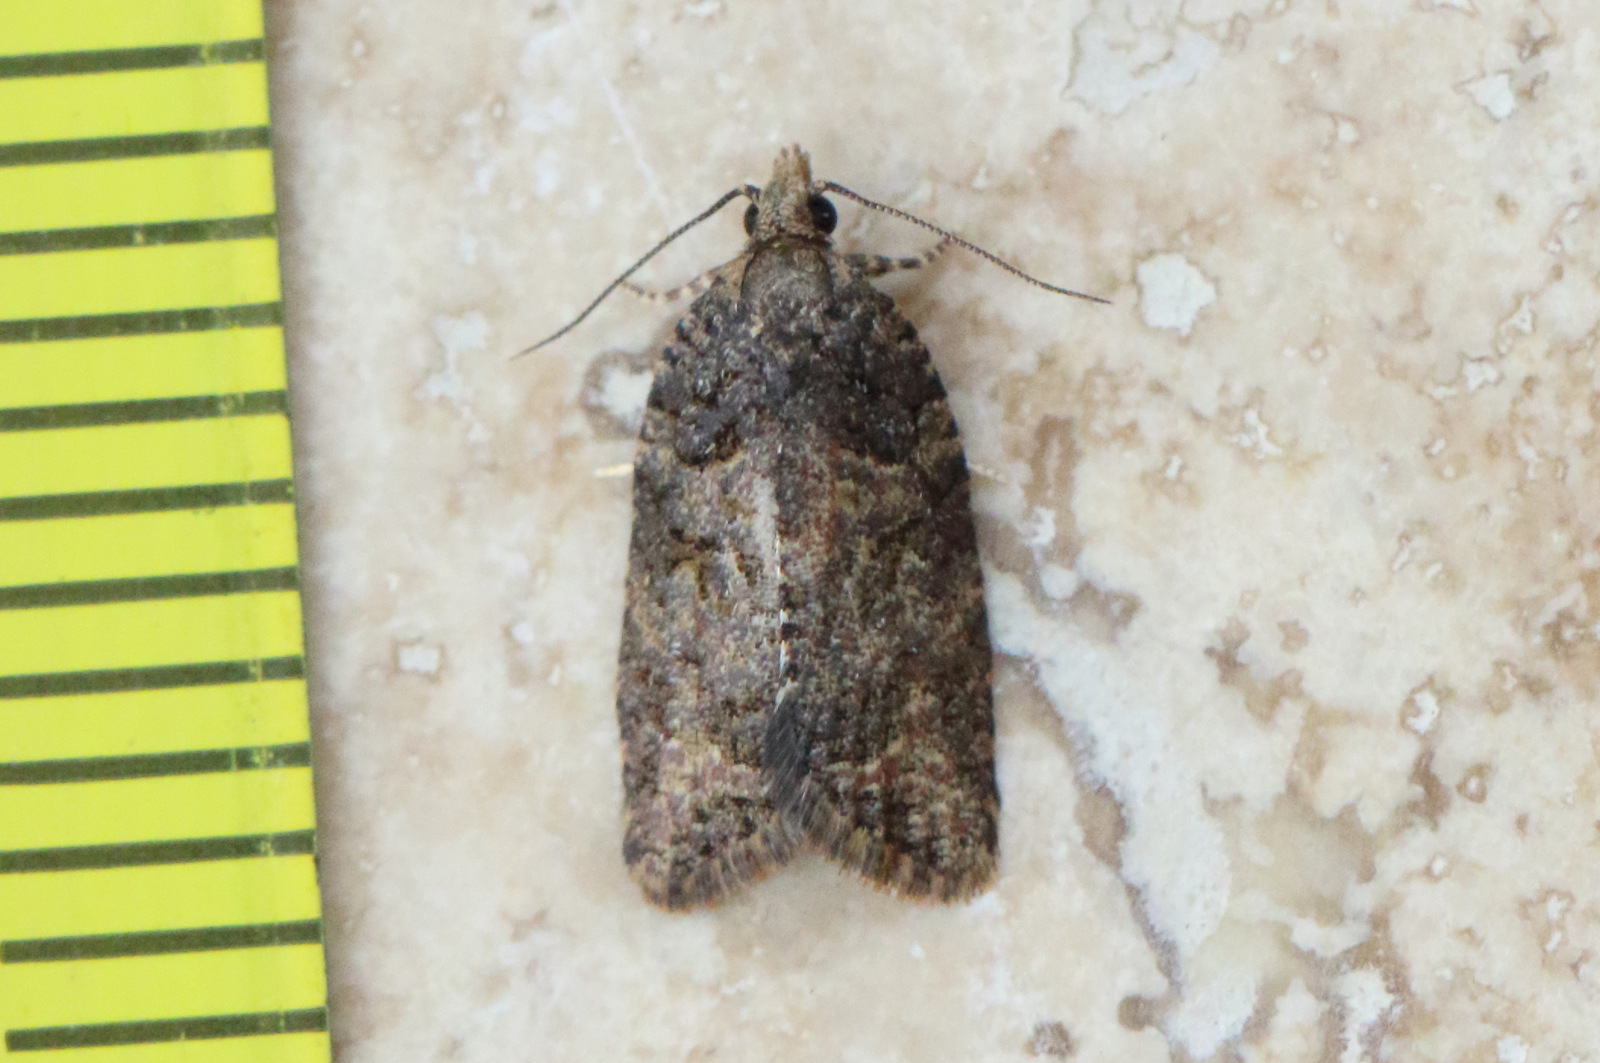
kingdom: Animalia
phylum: Arthropoda
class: Insecta
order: Lepidoptera
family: Tortricidae
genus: Capua
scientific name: Capua dura
